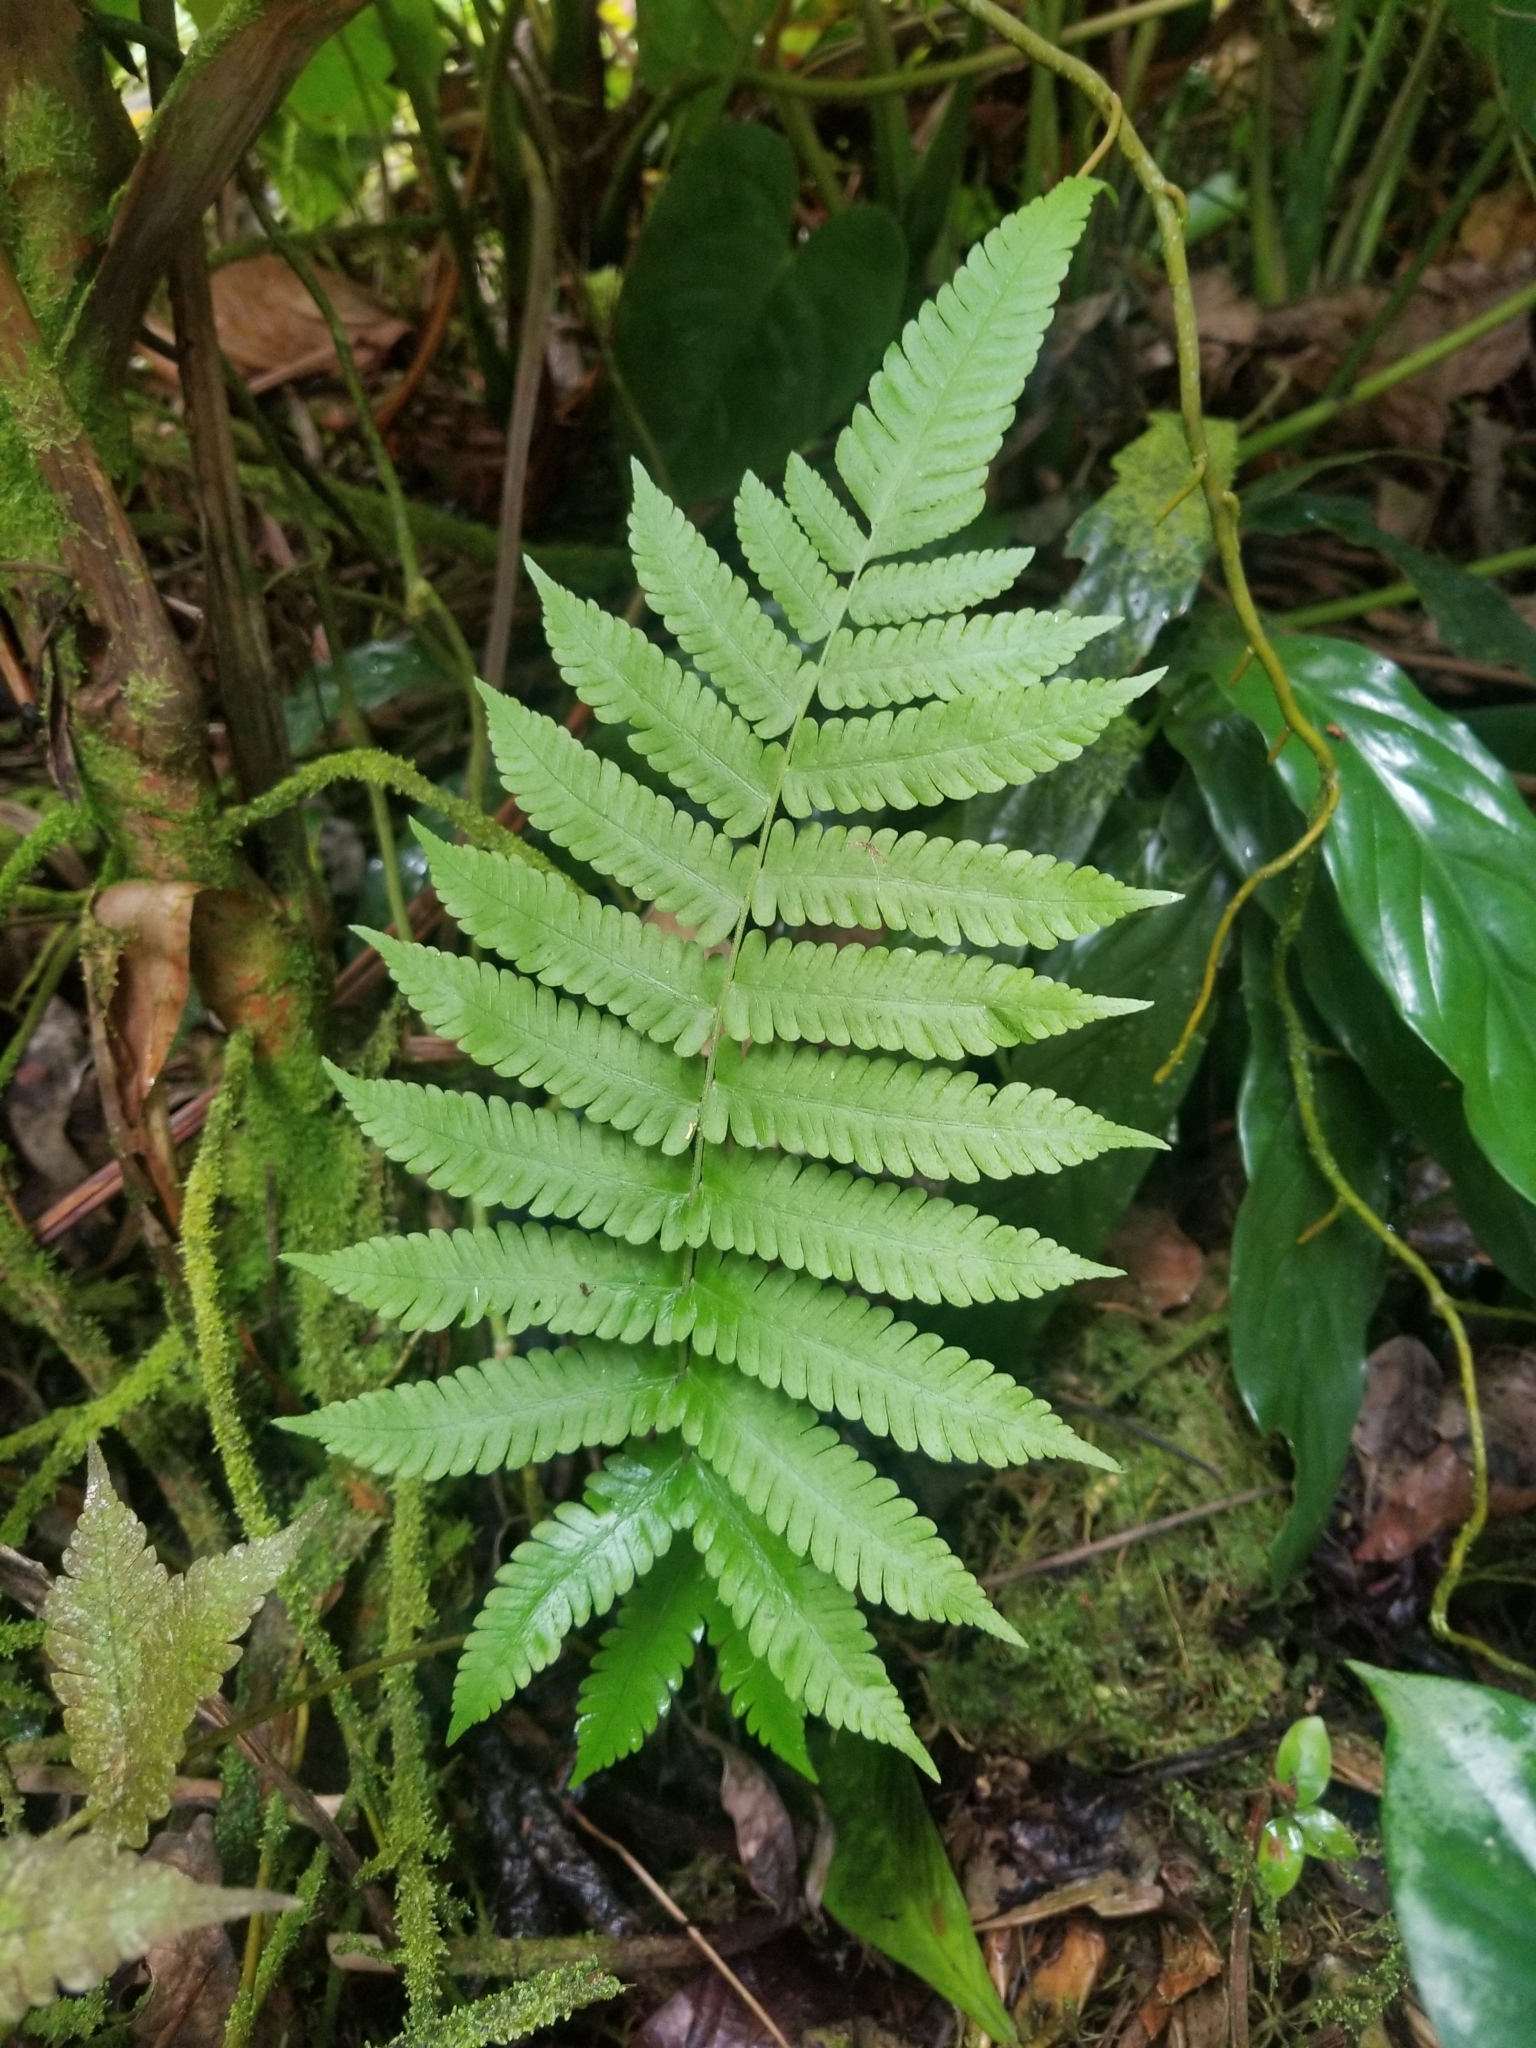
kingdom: Plantae
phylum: Tracheophyta
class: Polypodiopsida
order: Polypodiales
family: Thelypteridaceae
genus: Christella
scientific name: Christella parasitica
